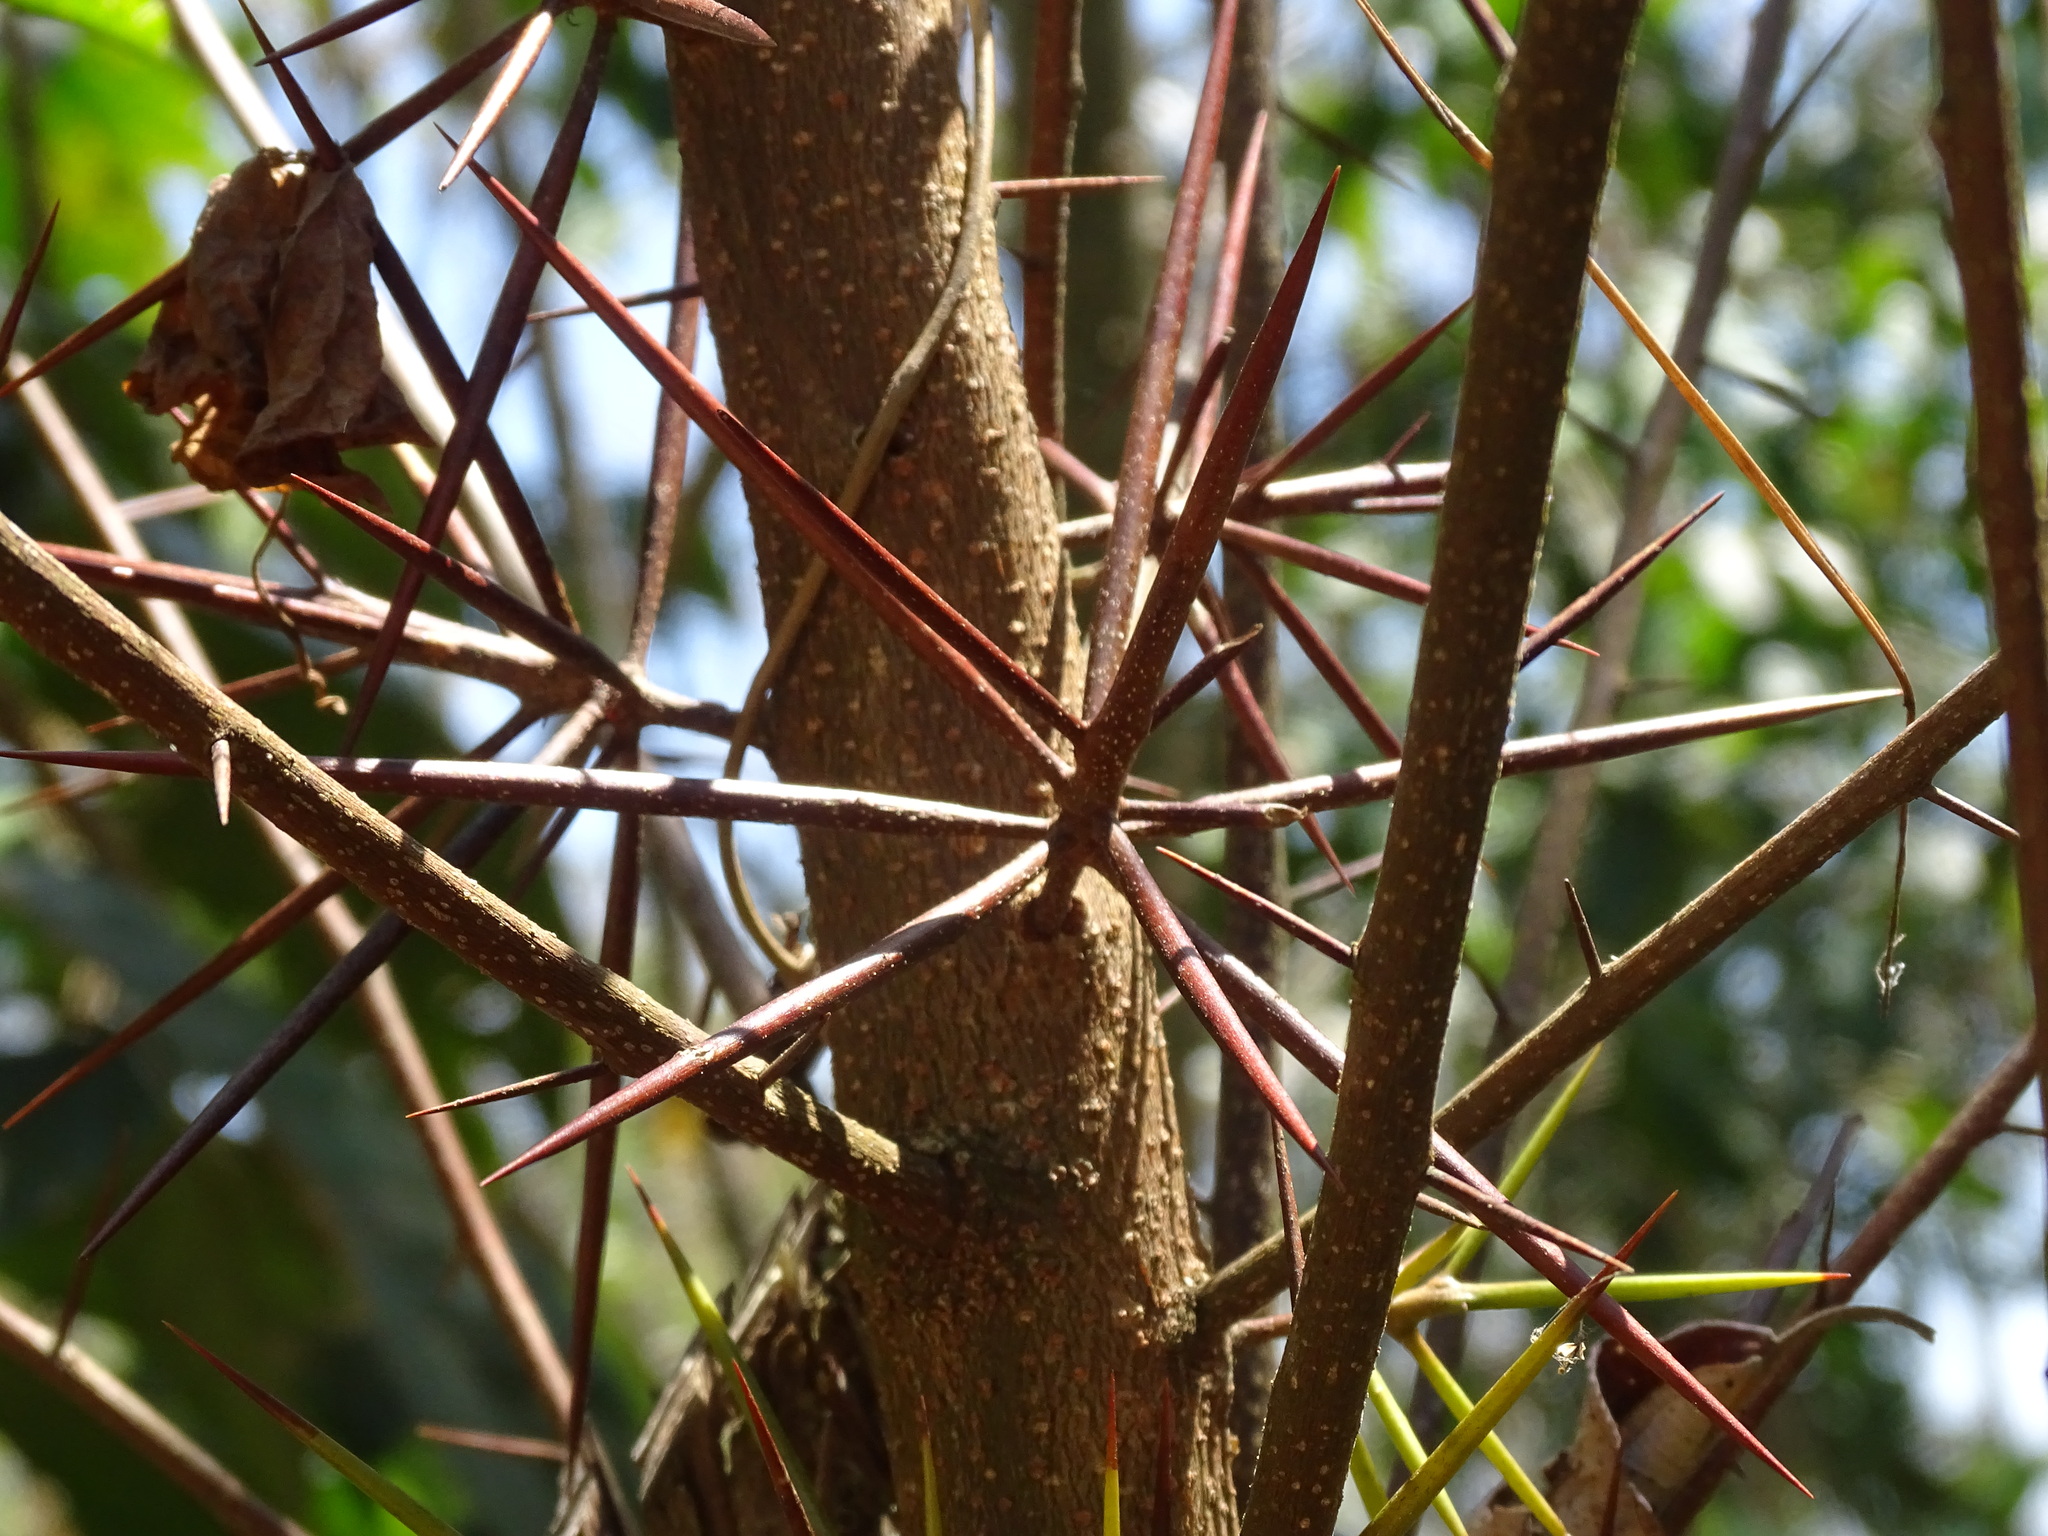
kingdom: Plantae
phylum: Tracheophyta
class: Magnoliopsida
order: Malpighiales
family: Salicaceae
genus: Xylosma
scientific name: Xylosma chlorantha
